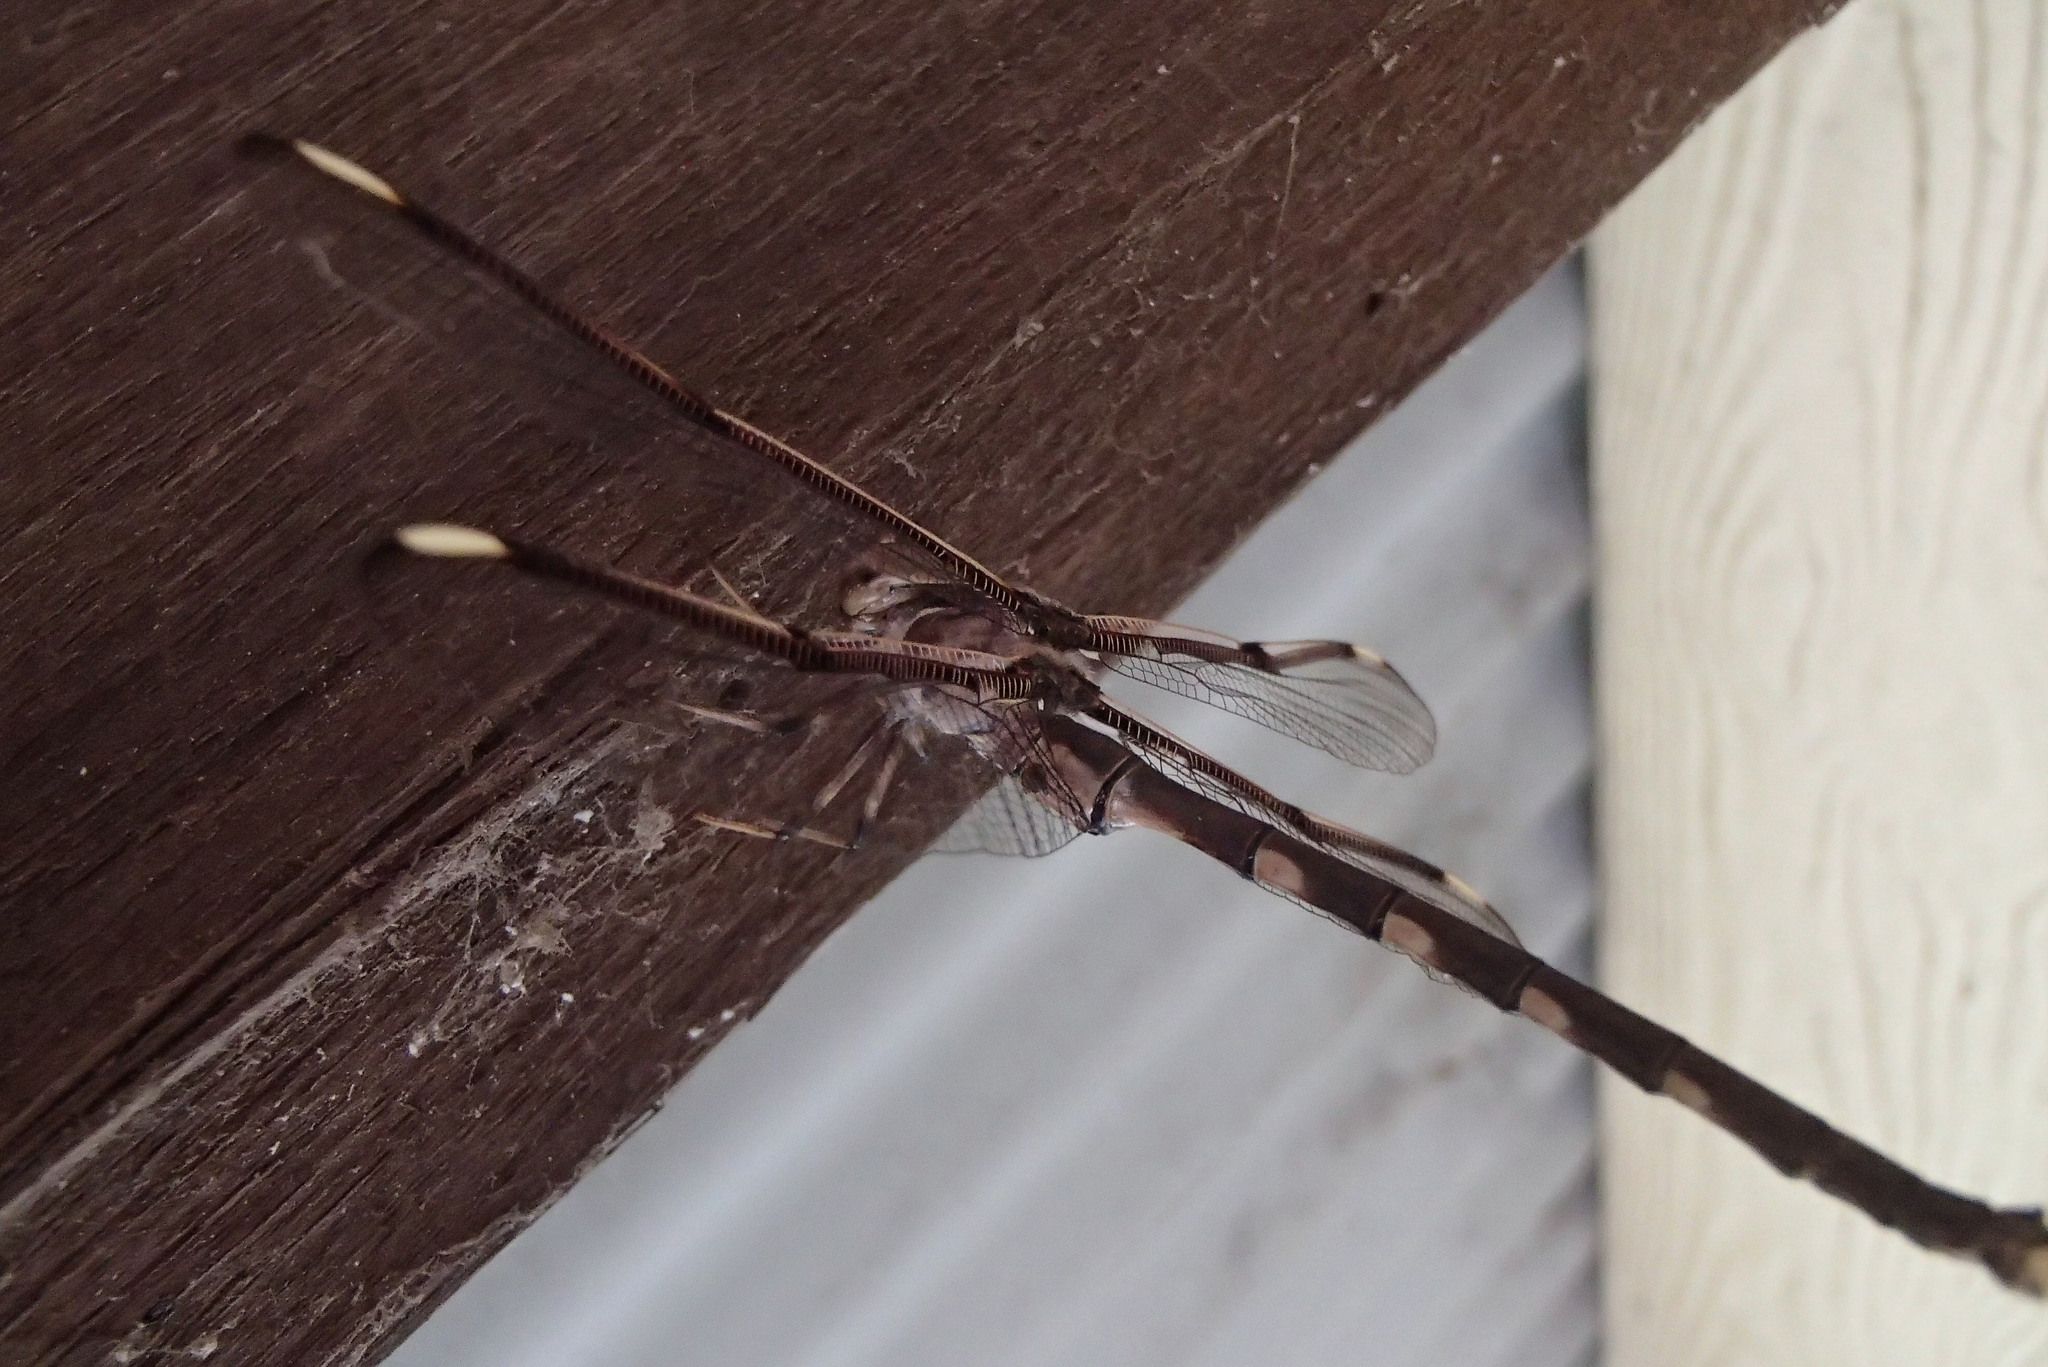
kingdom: Animalia
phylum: Arthropoda
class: Insecta
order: Odonata
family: Aeshnidae
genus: Telephlebia
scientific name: Telephlebia godeffroyi
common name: Eastern evening darner
